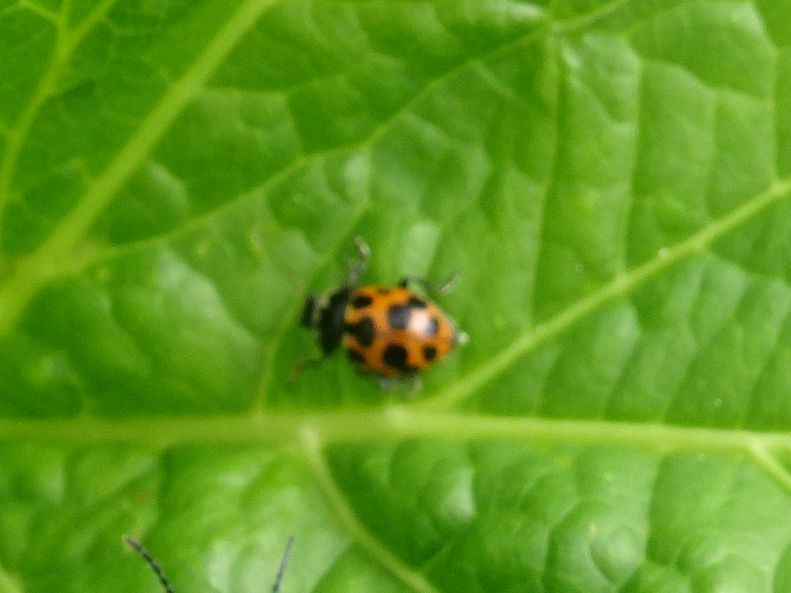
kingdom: Animalia
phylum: Arthropoda
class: Insecta
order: Coleoptera
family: Coccinellidae
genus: Ceratomegilla
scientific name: Ceratomegilla notata
